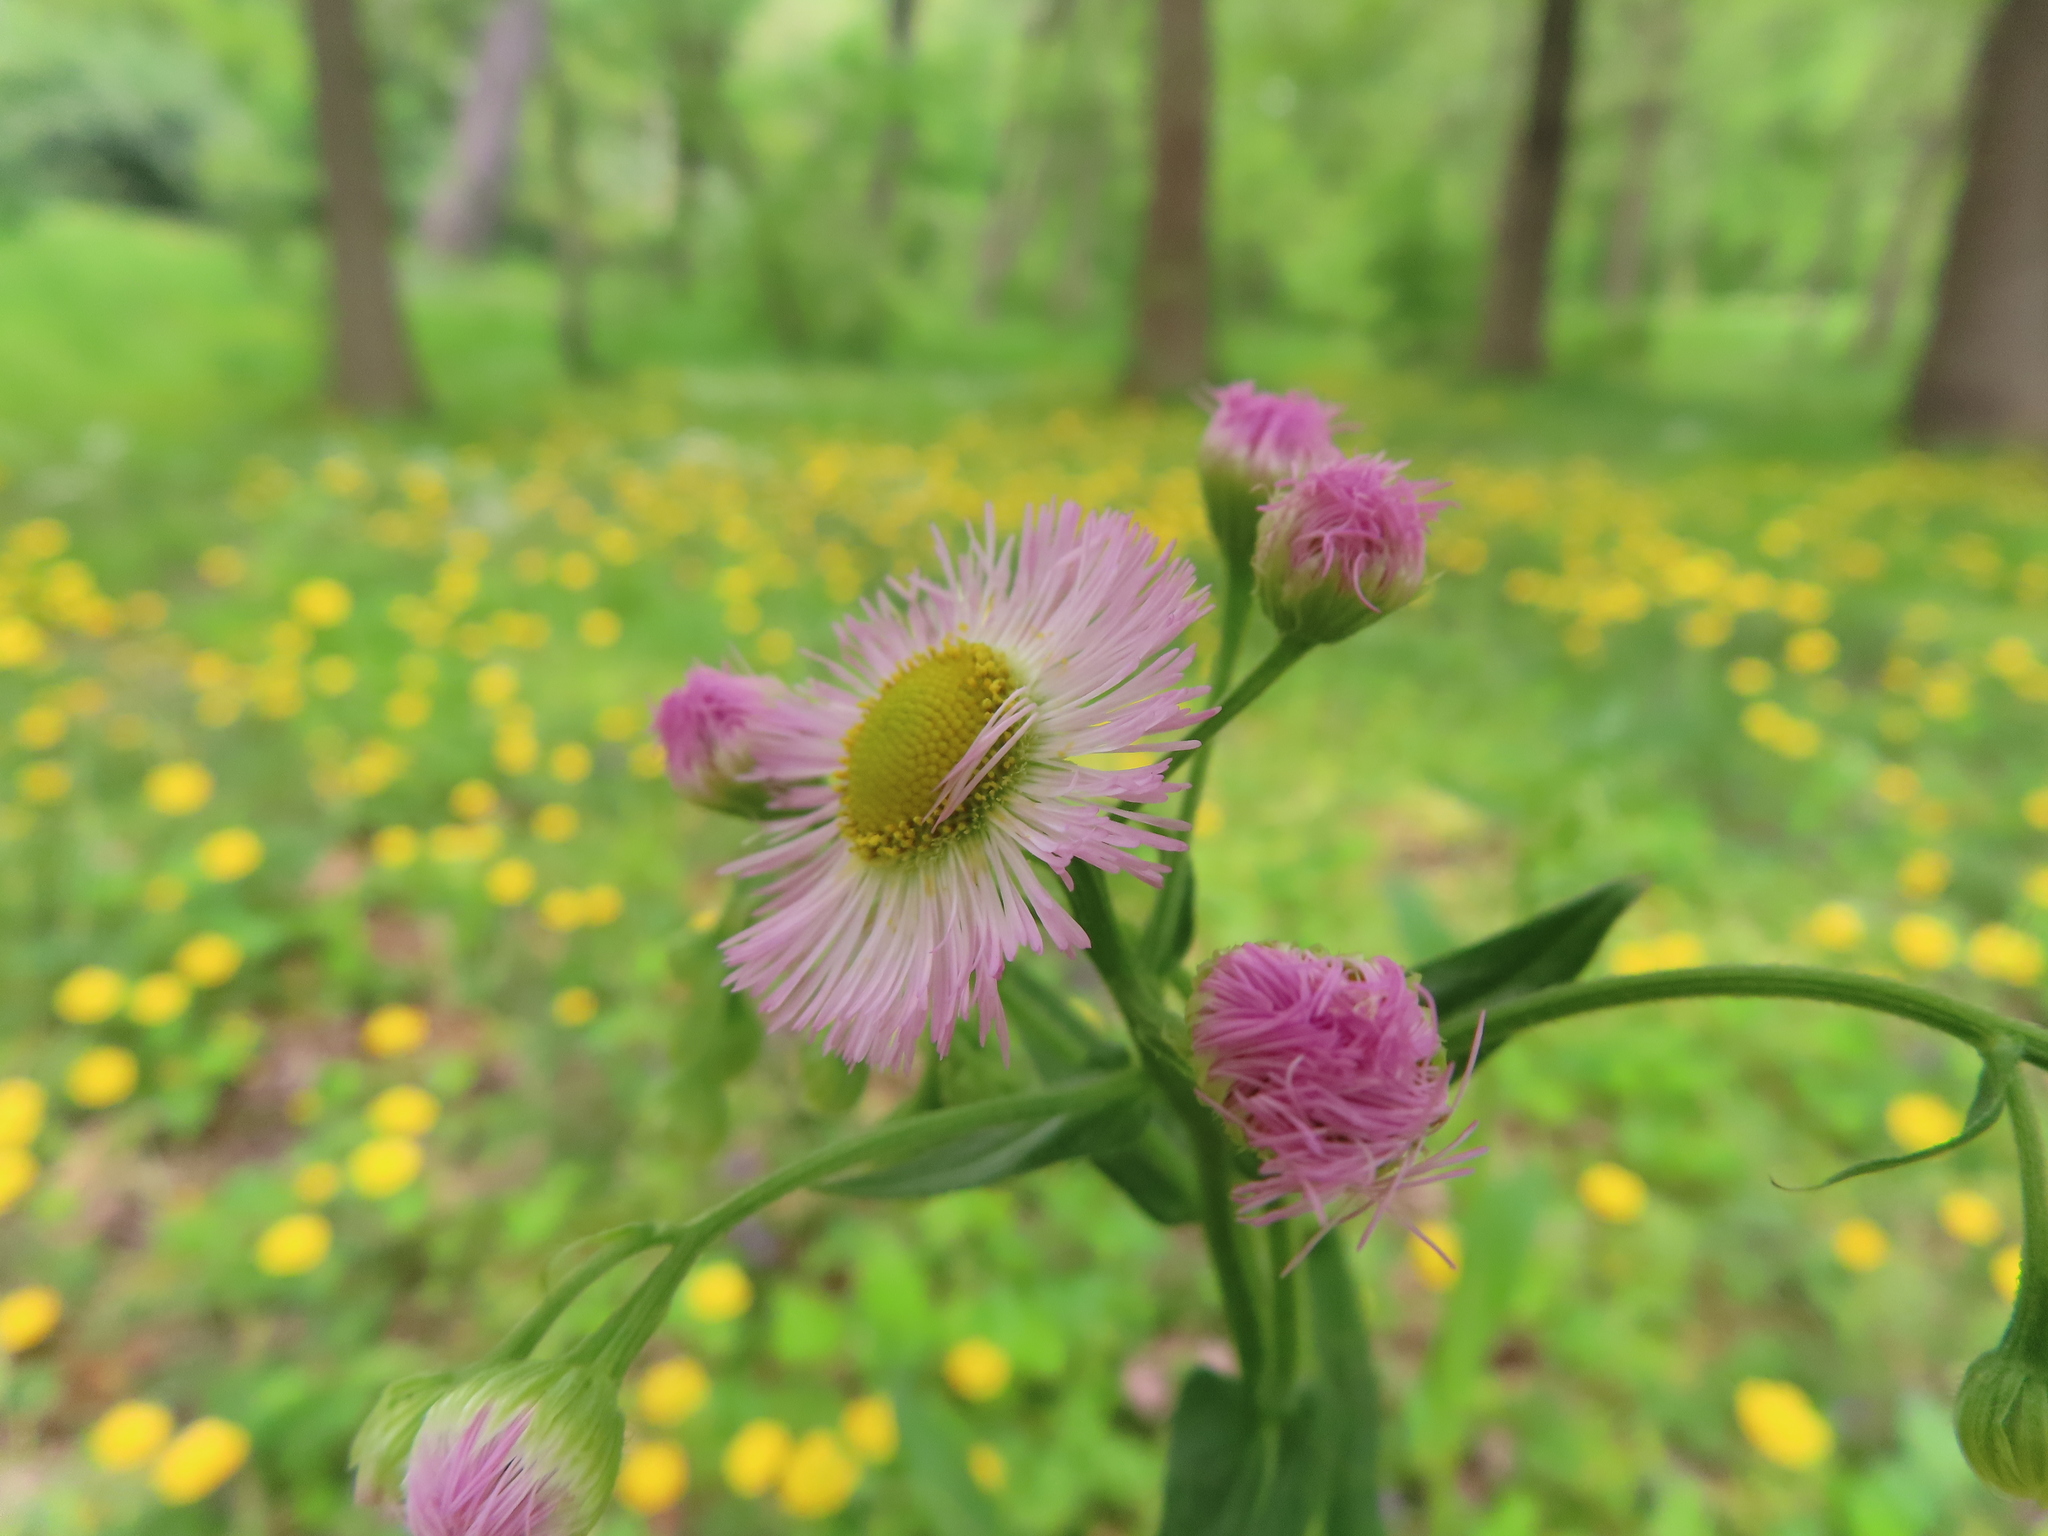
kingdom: Plantae
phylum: Tracheophyta
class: Magnoliopsida
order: Asterales
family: Asteraceae
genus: Erigeron
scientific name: Erigeron philadelphicus
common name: Robin's-plantain
